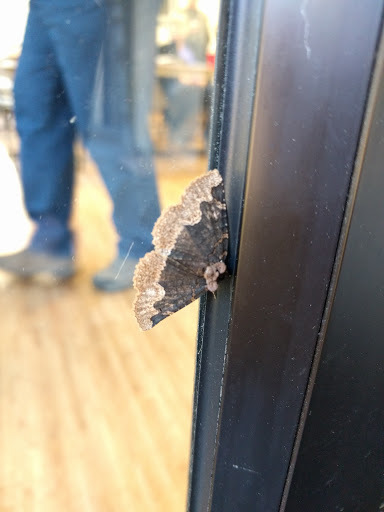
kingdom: Animalia
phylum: Arthropoda
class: Insecta
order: Lepidoptera
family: Erebidae
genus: Zale
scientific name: Zale horrida
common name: Horrid zale moth
